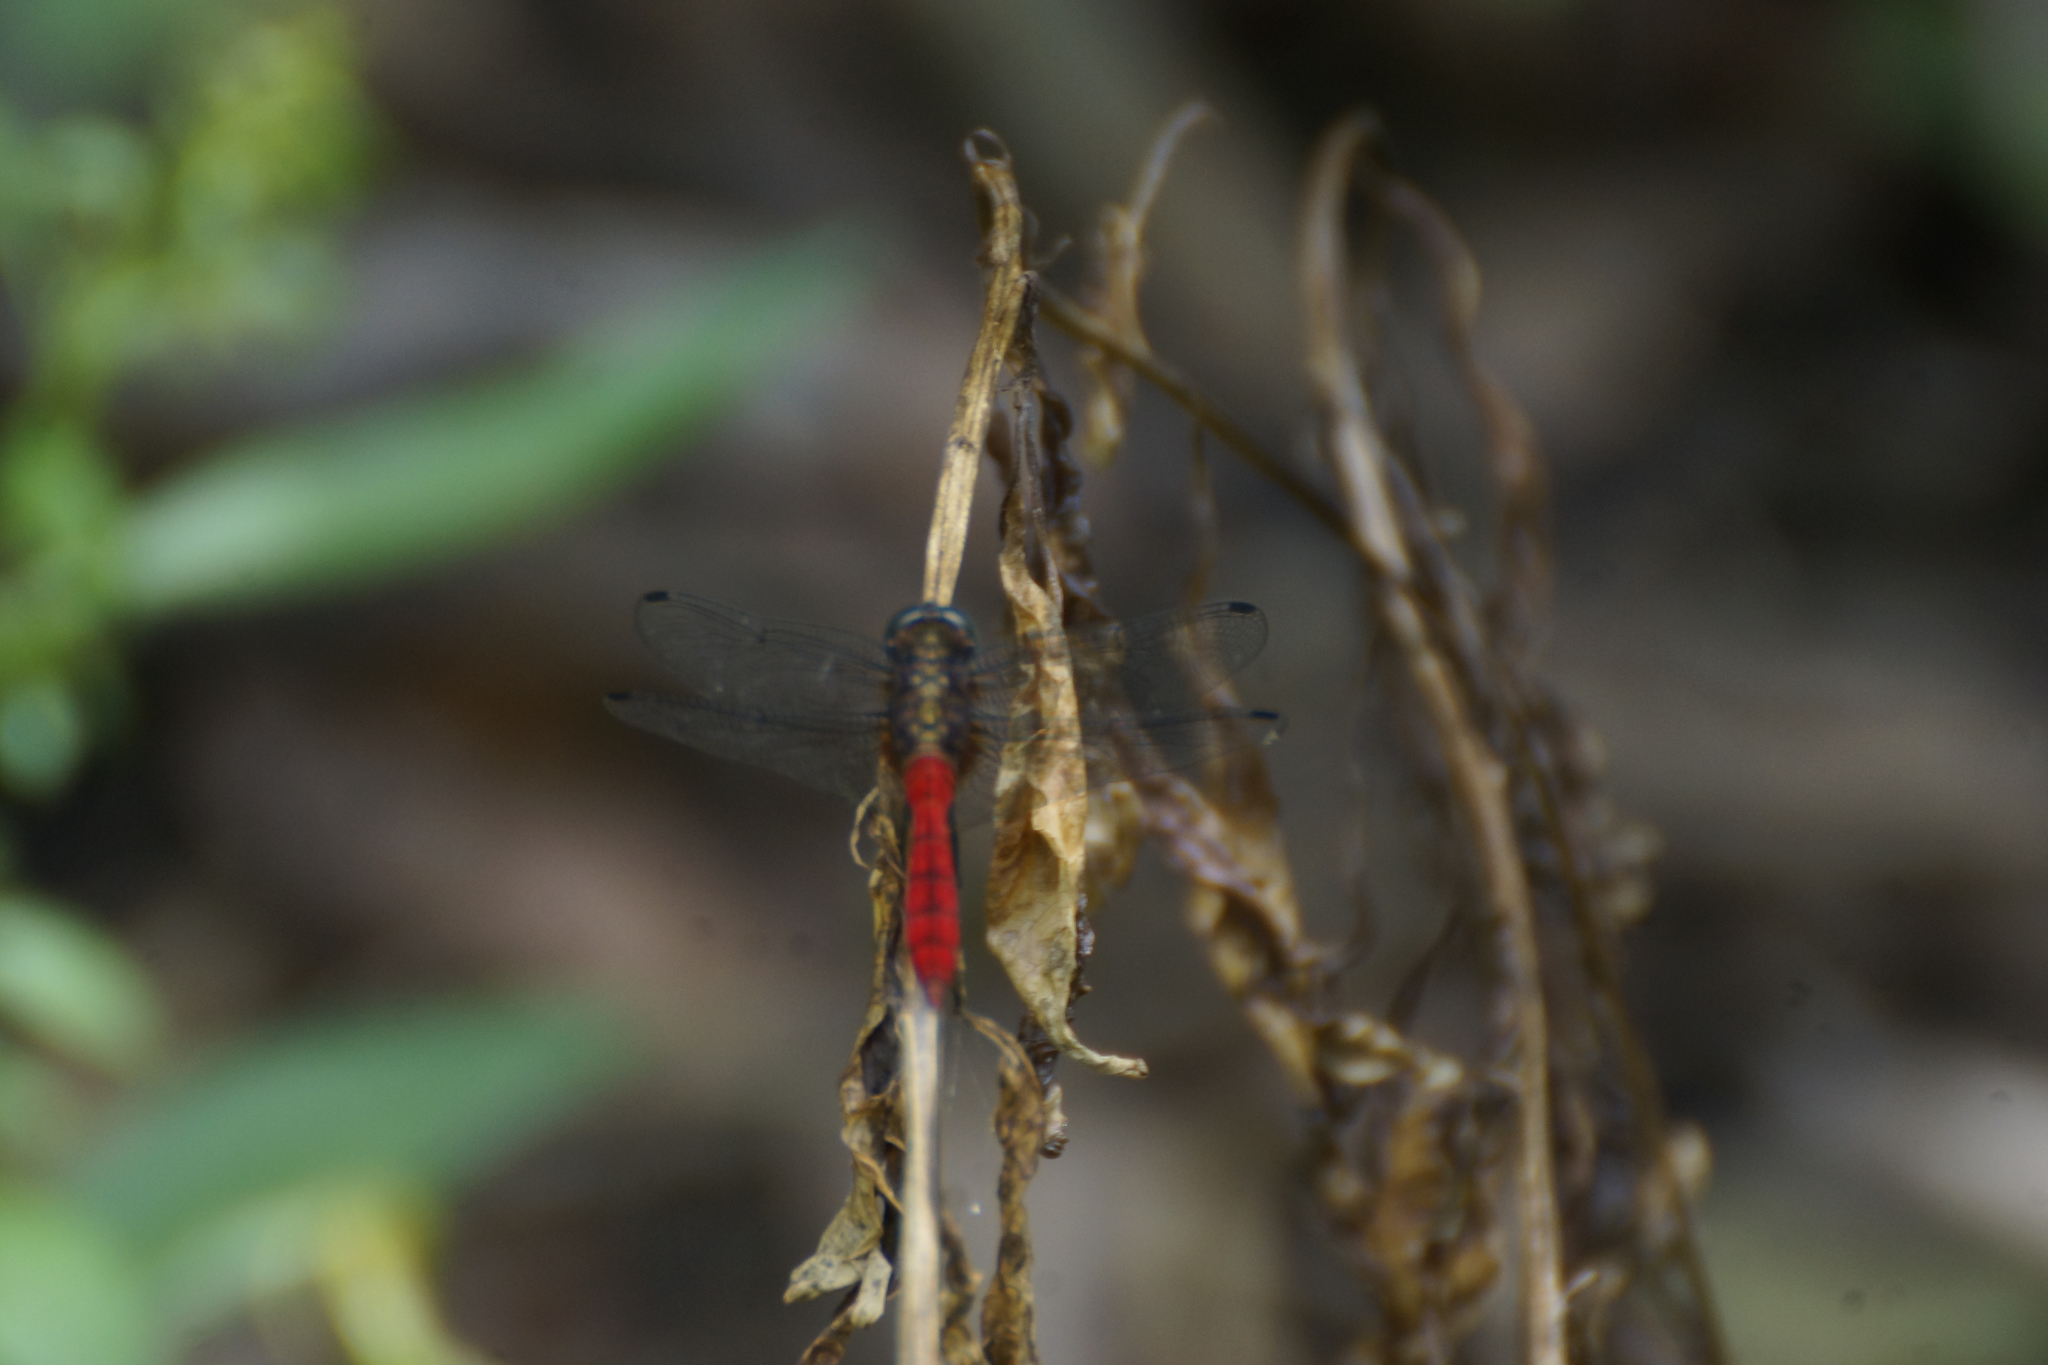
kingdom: Animalia
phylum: Arthropoda
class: Insecta
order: Odonata
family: Libellulidae
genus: Orthetrum
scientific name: Orthetrum villosovittatum
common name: Firery skimmer
